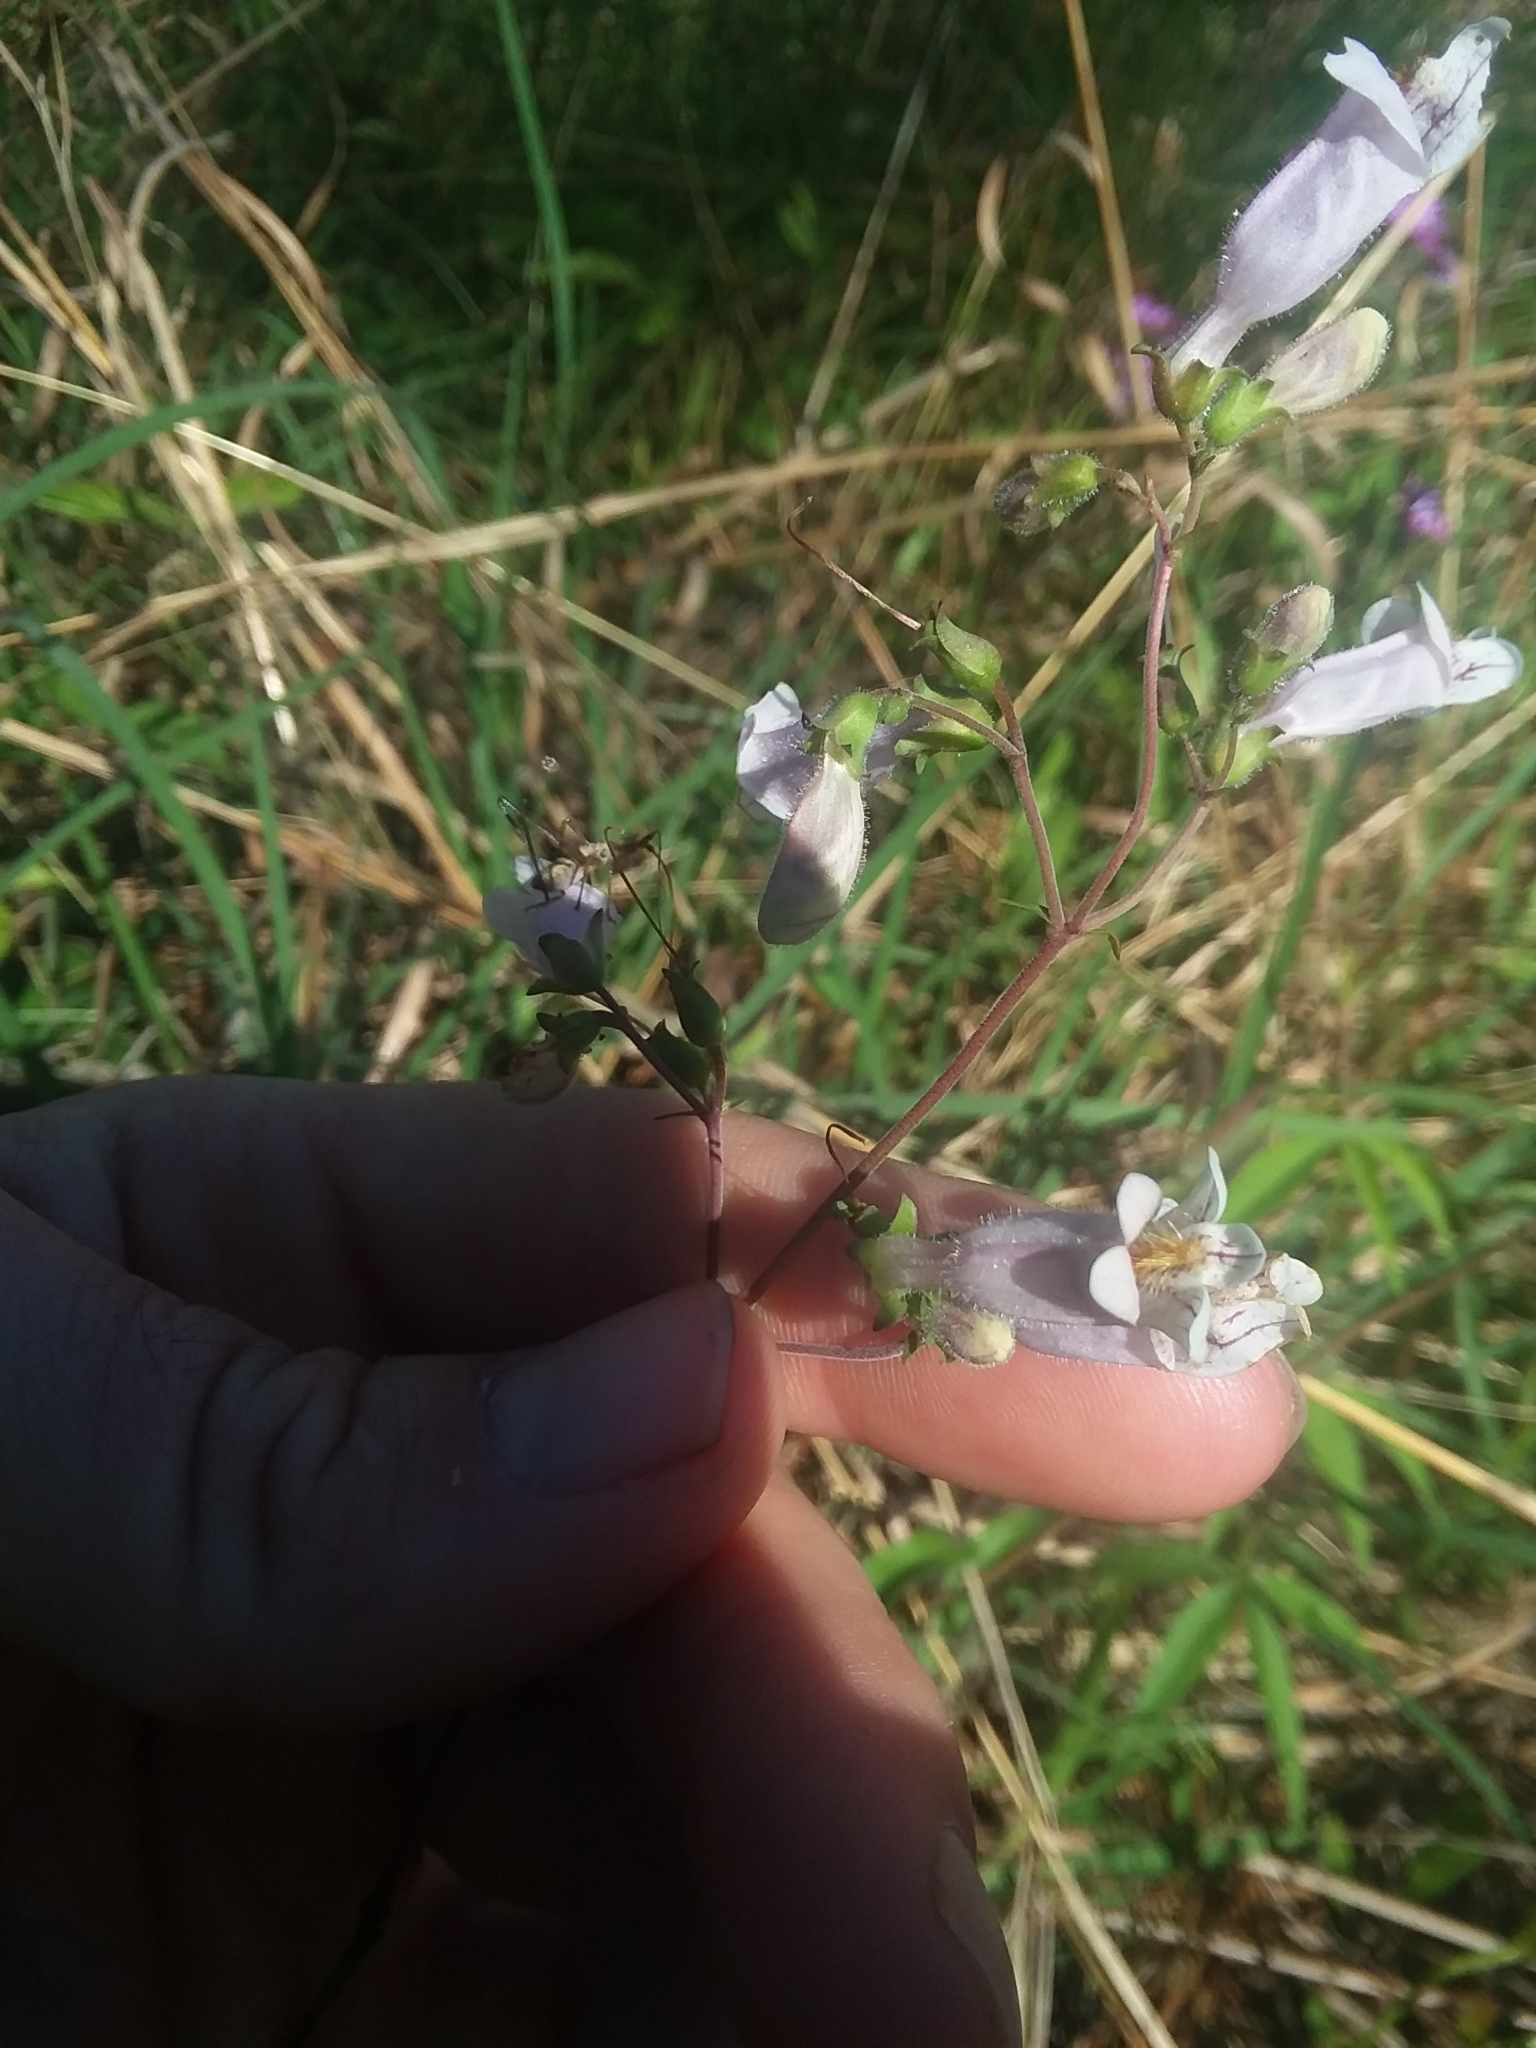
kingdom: Plantae
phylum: Tracheophyta
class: Magnoliopsida
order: Lamiales
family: Plantaginaceae
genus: Penstemon
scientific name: Penstemon laxiflorus
